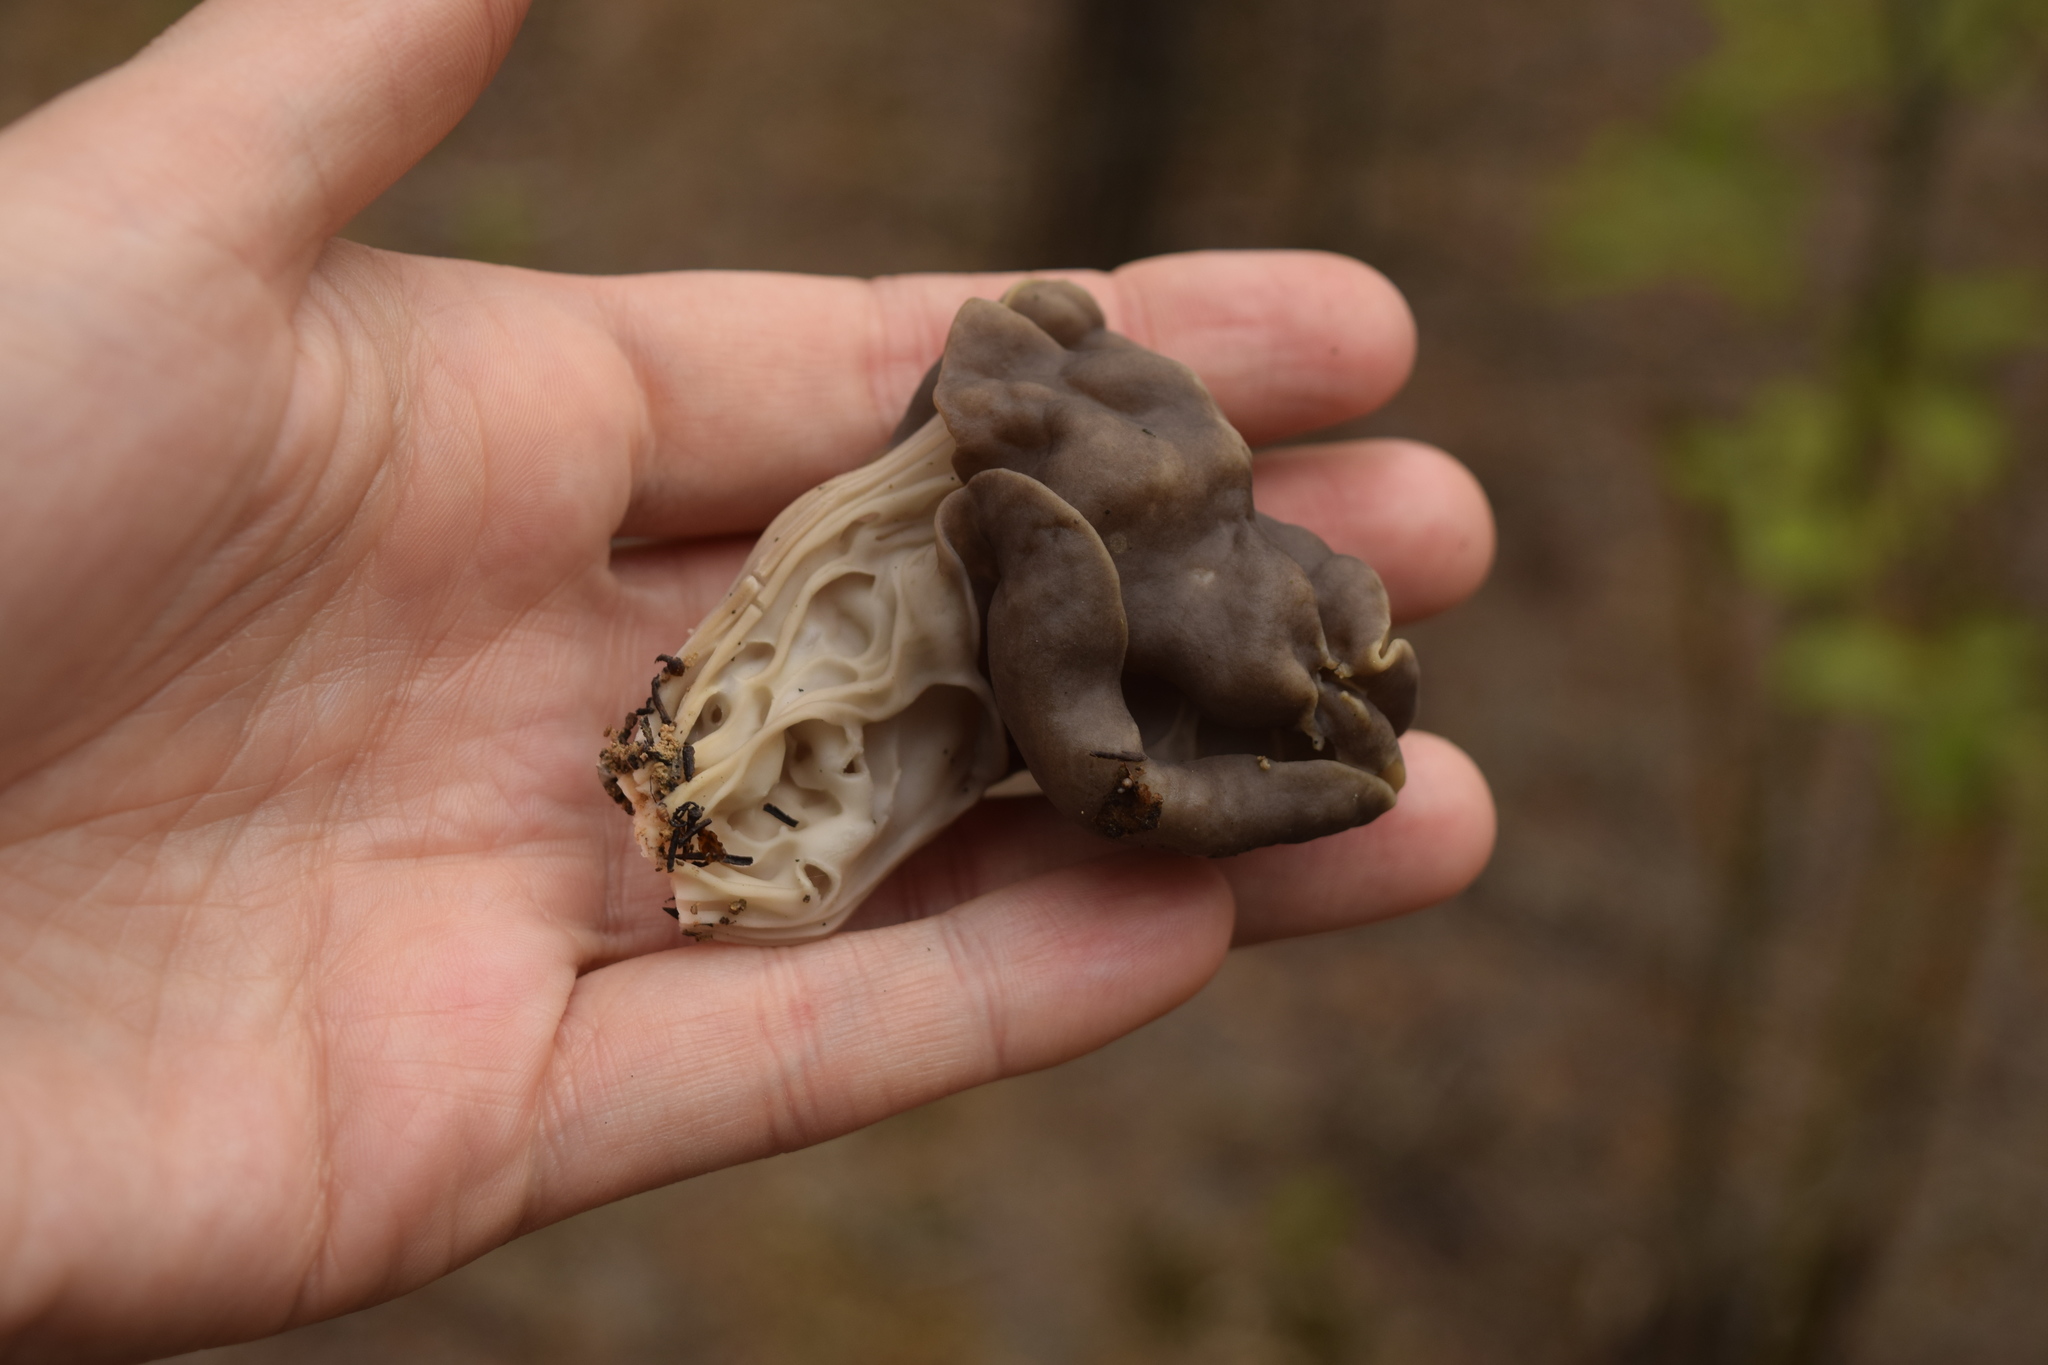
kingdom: Fungi
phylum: Ascomycota
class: Pezizomycetes
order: Pezizales
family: Helvellaceae
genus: Helvella
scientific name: Helvella lacunosa
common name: Elfin saddle
